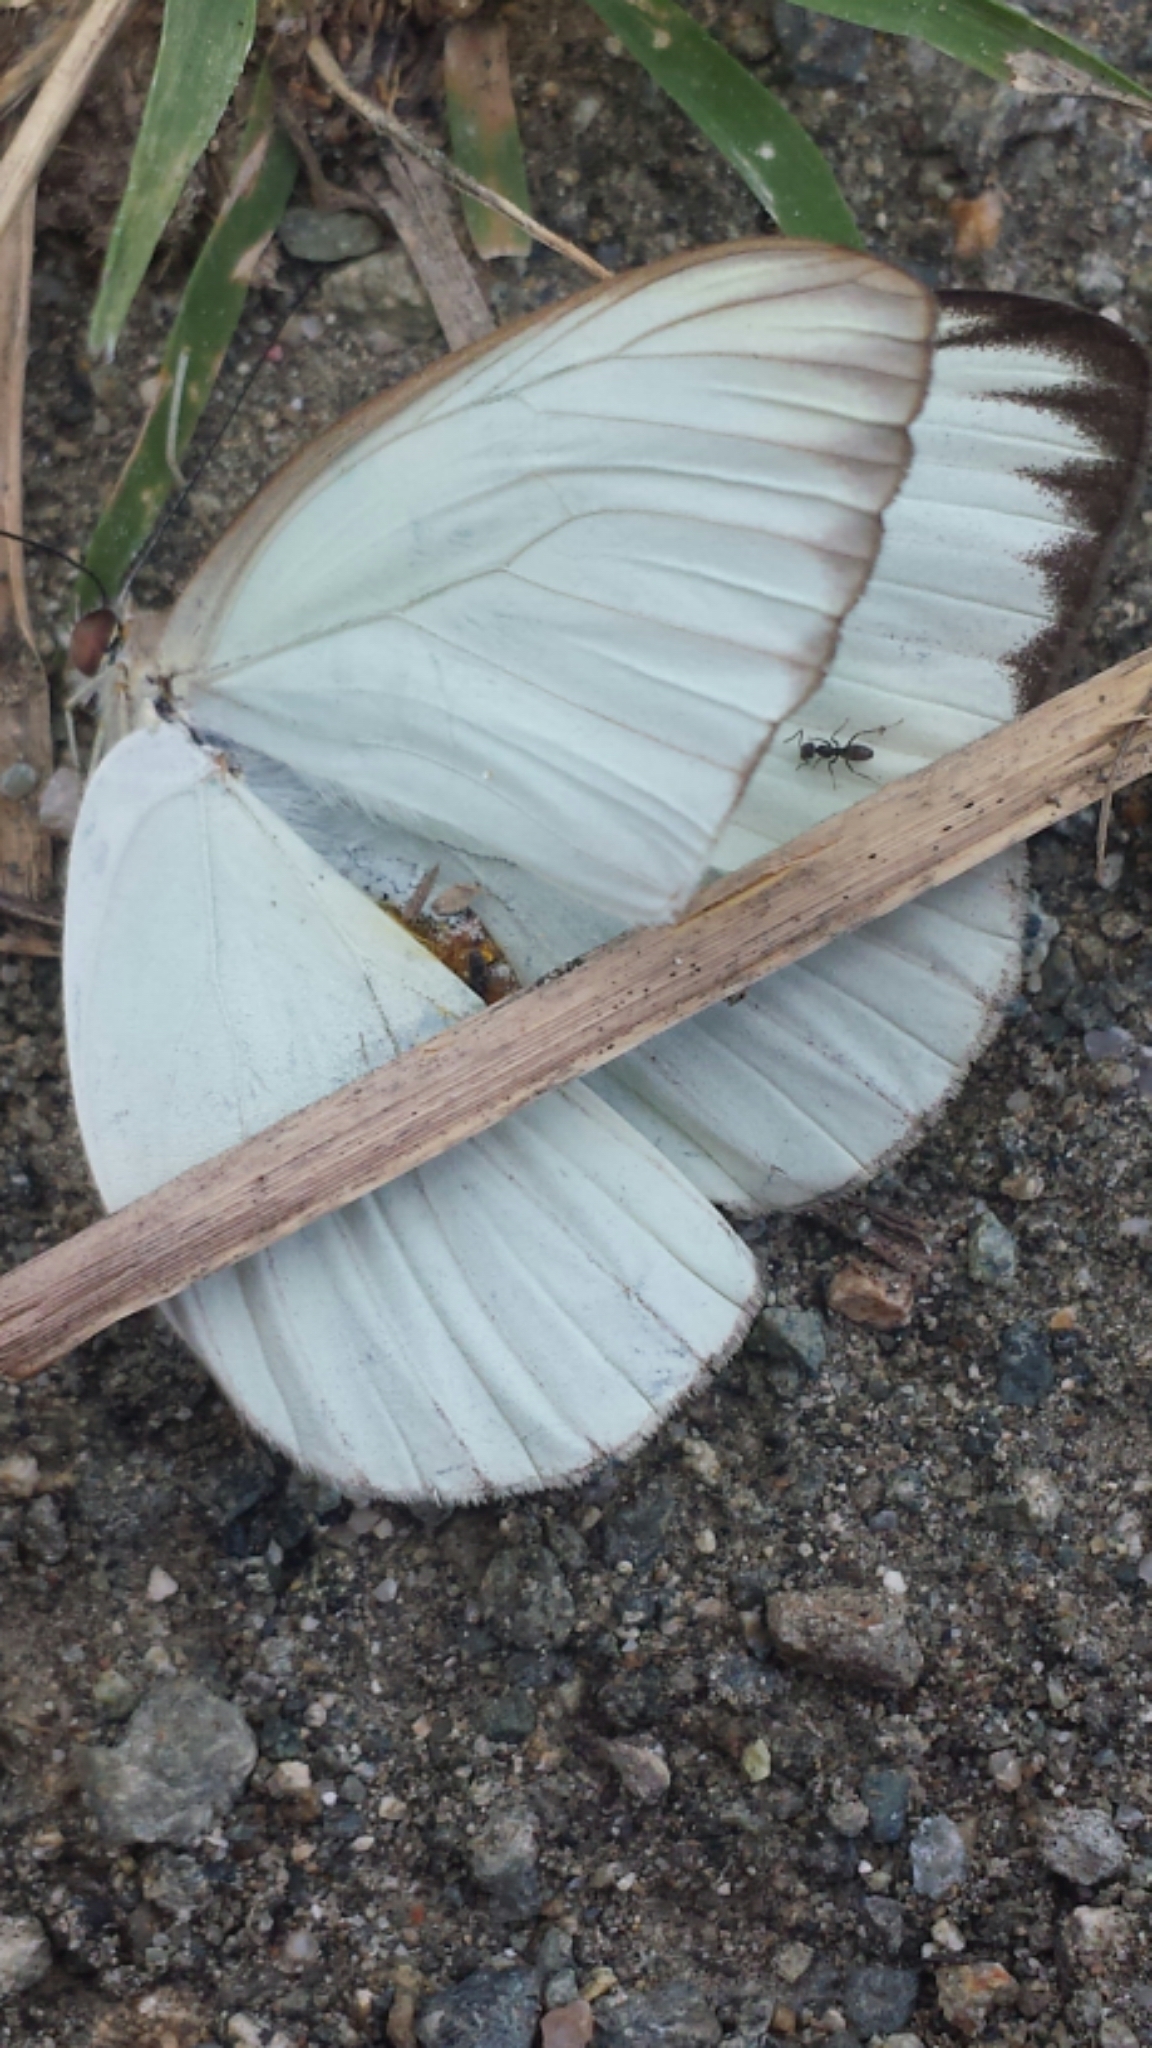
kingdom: Animalia
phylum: Arthropoda
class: Insecta
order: Lepidoptera
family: Pieridae
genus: Ascia
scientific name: Ascia monuste
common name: Great southern white
